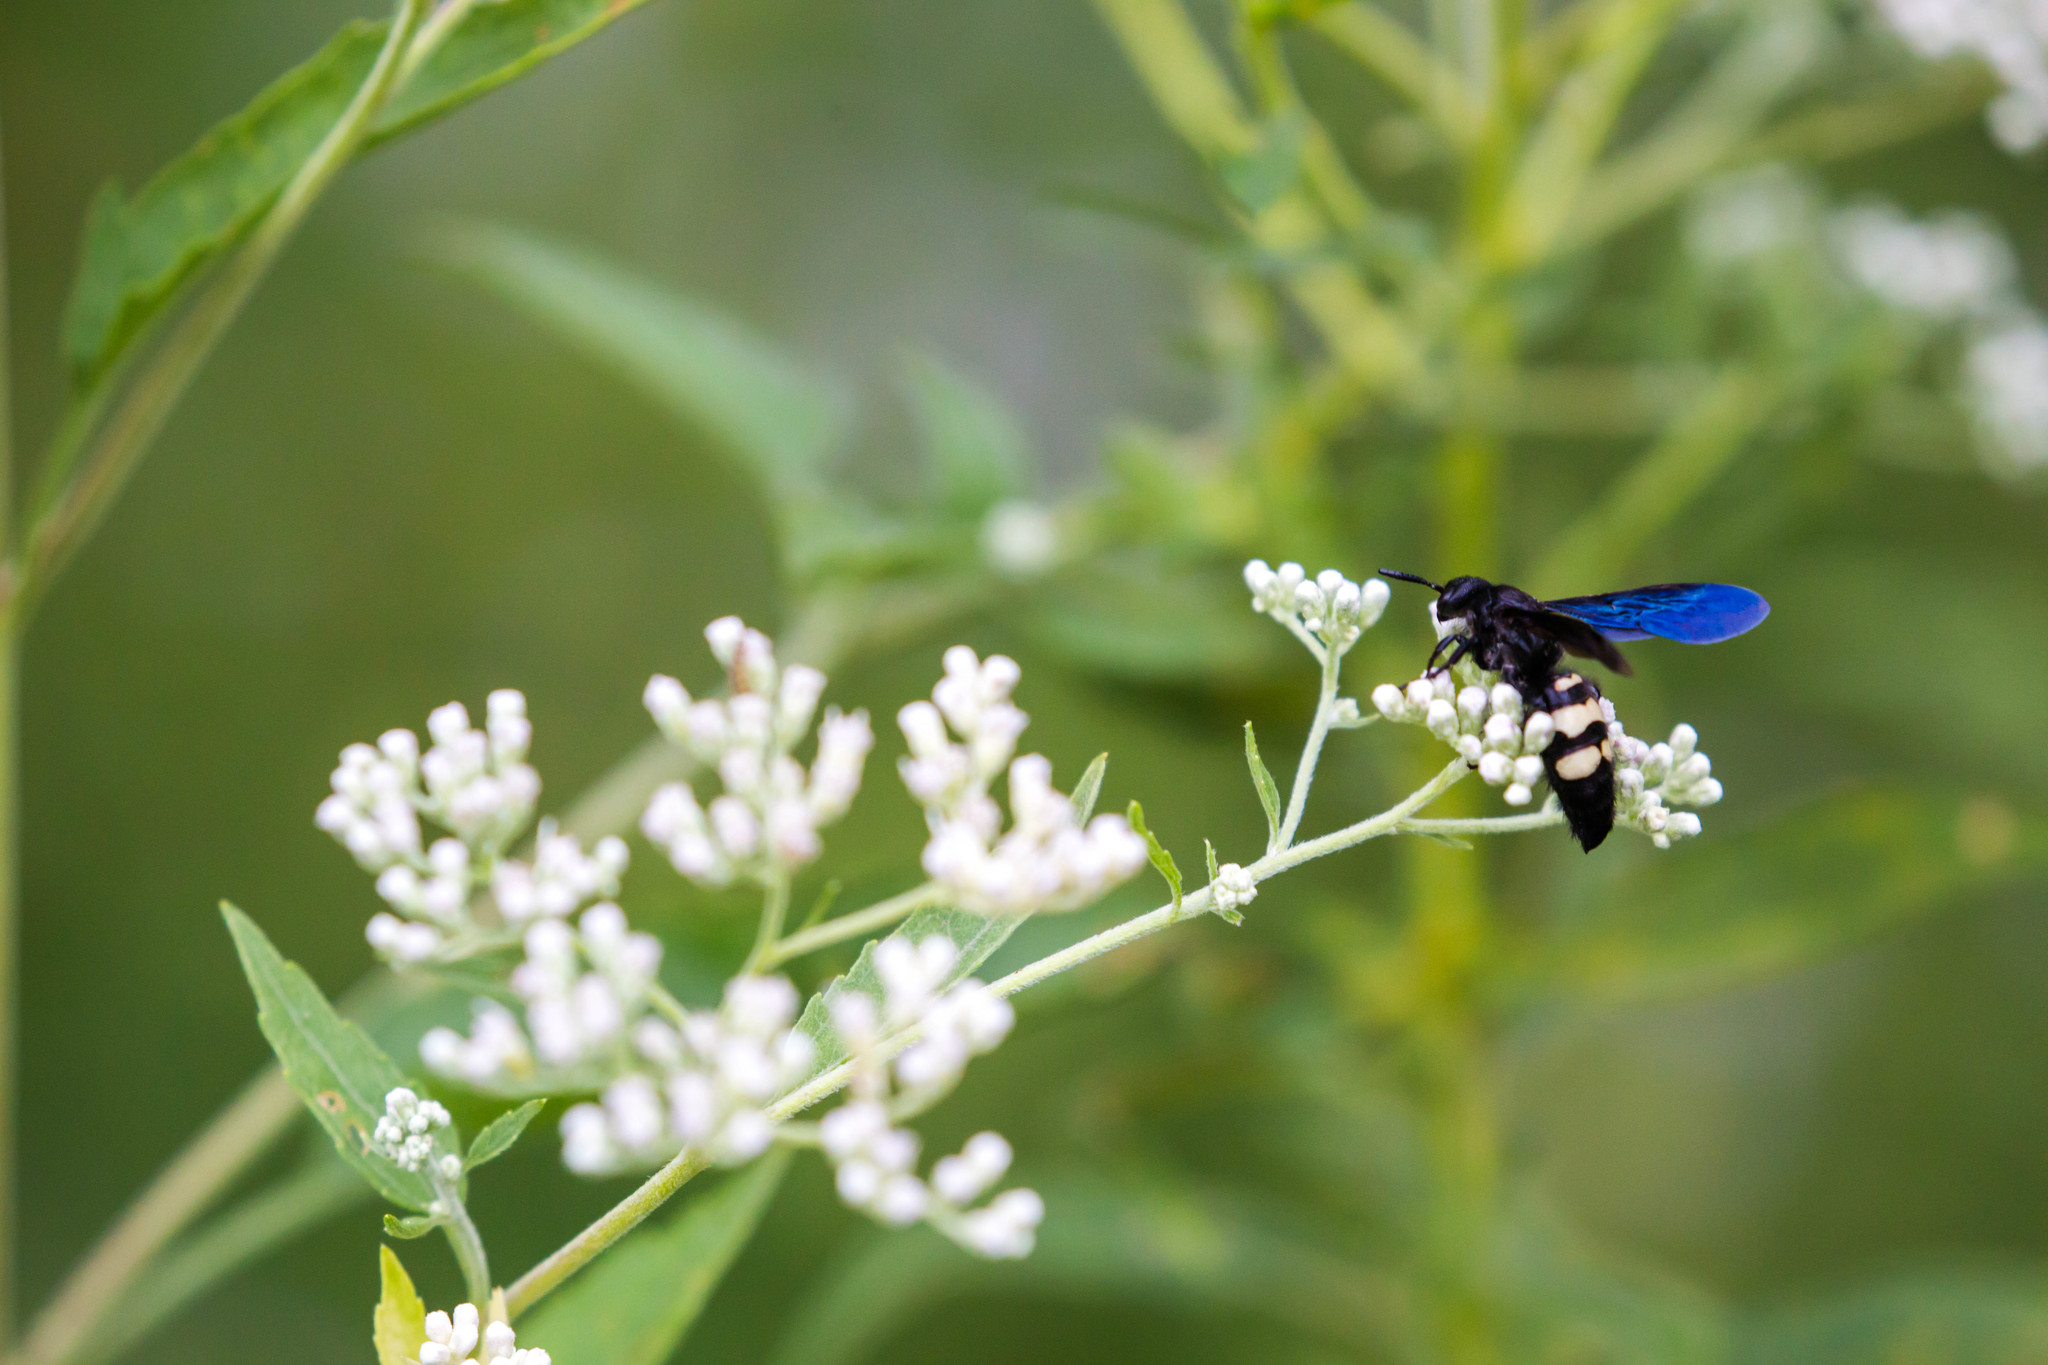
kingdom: Animalia
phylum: Arthropoda
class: Insecta
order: Hymenoptera
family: Scoliidae
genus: Scolia
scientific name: Scolia bicincta
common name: Double-banded scoliid wasp
